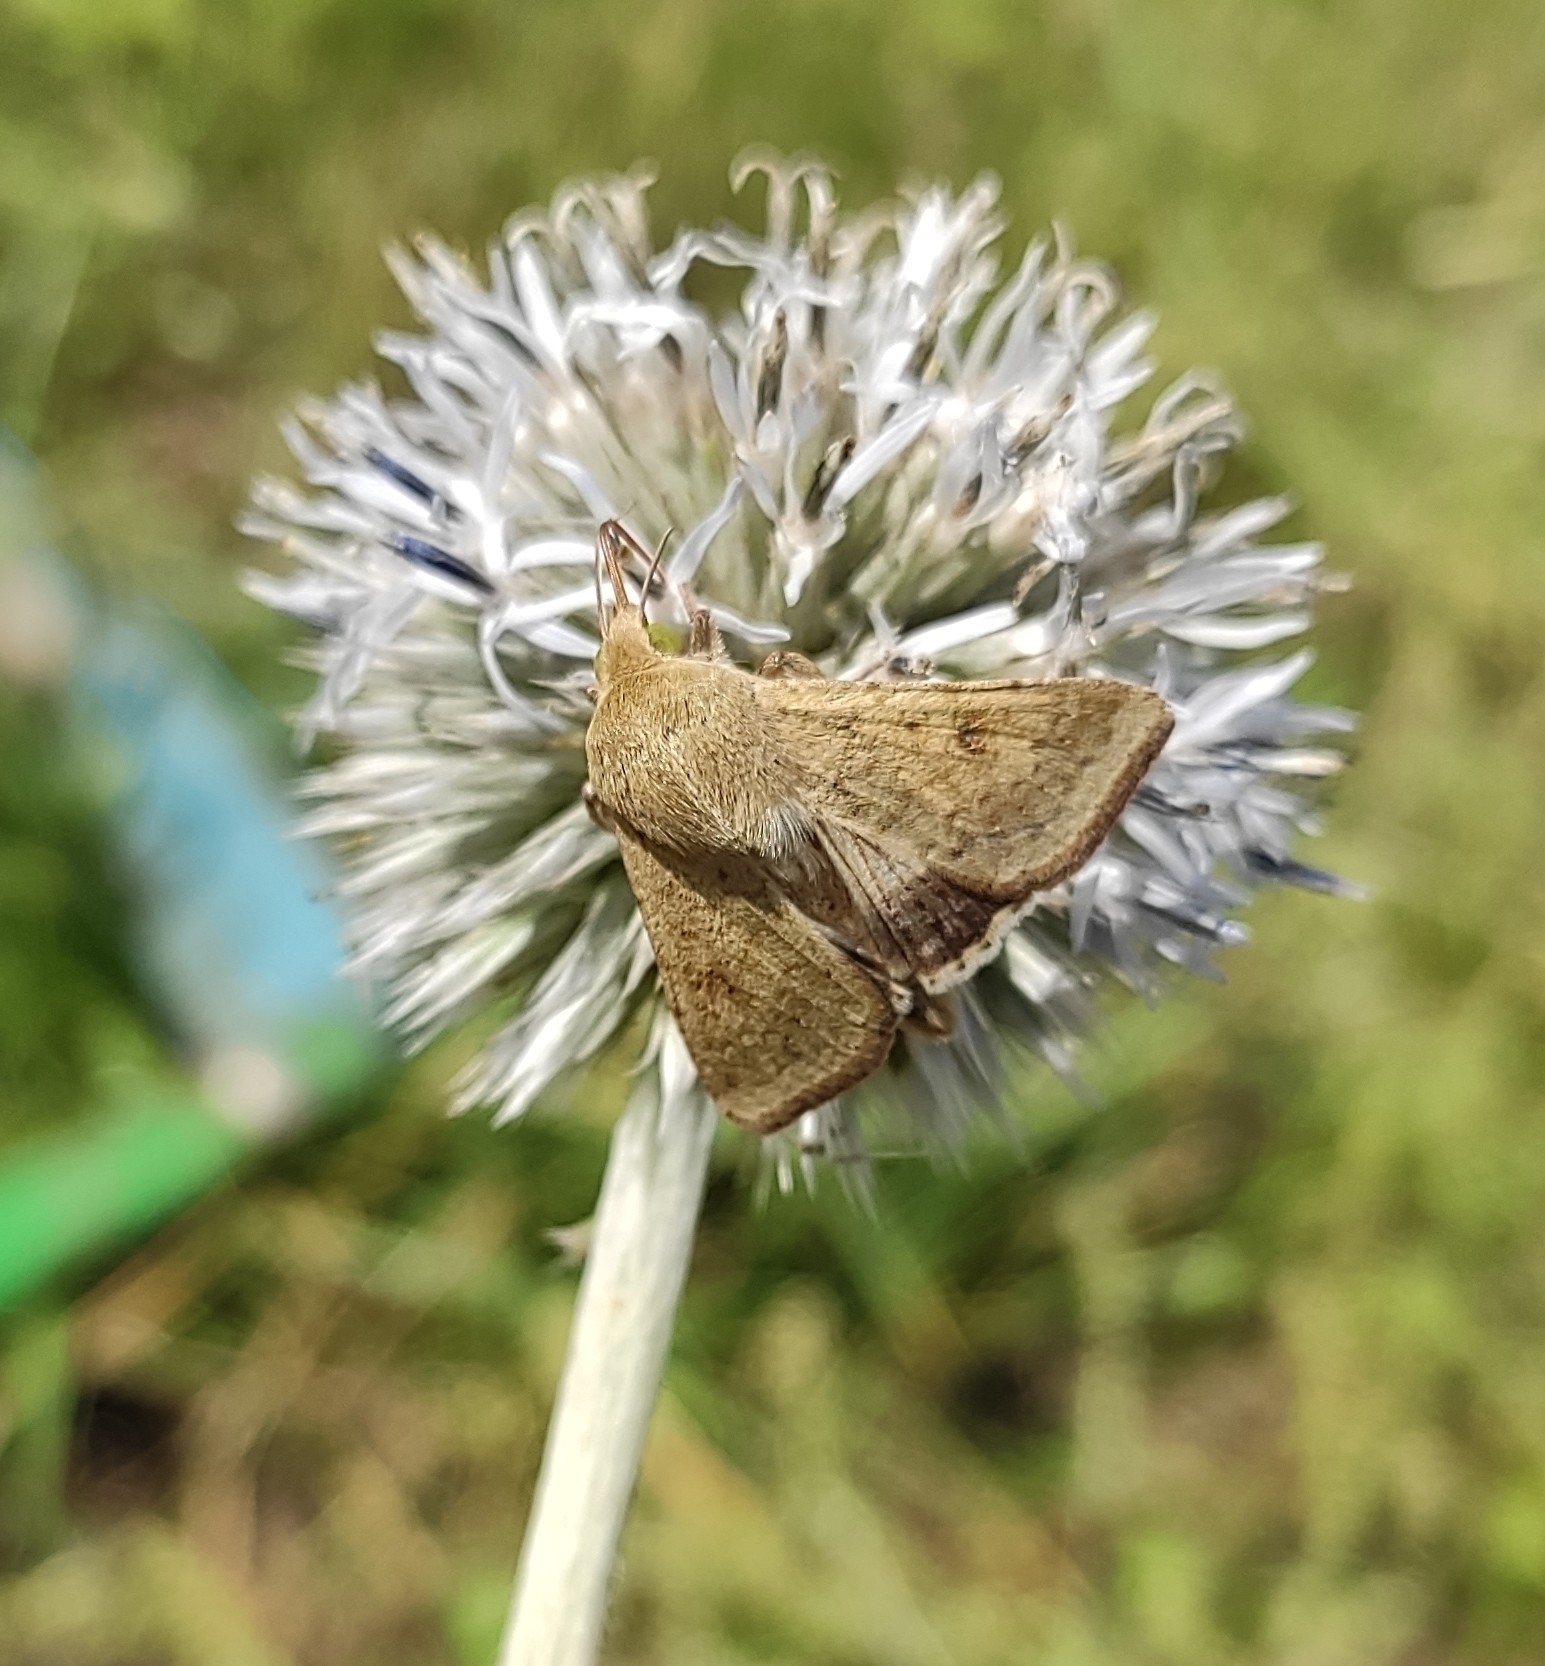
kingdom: Animalia
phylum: Arthropoda
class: Insecta
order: Lepidoptera
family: Noctuidae
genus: Helicoverpa
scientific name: Helicoverpa armigera
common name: Cotton bollworm
